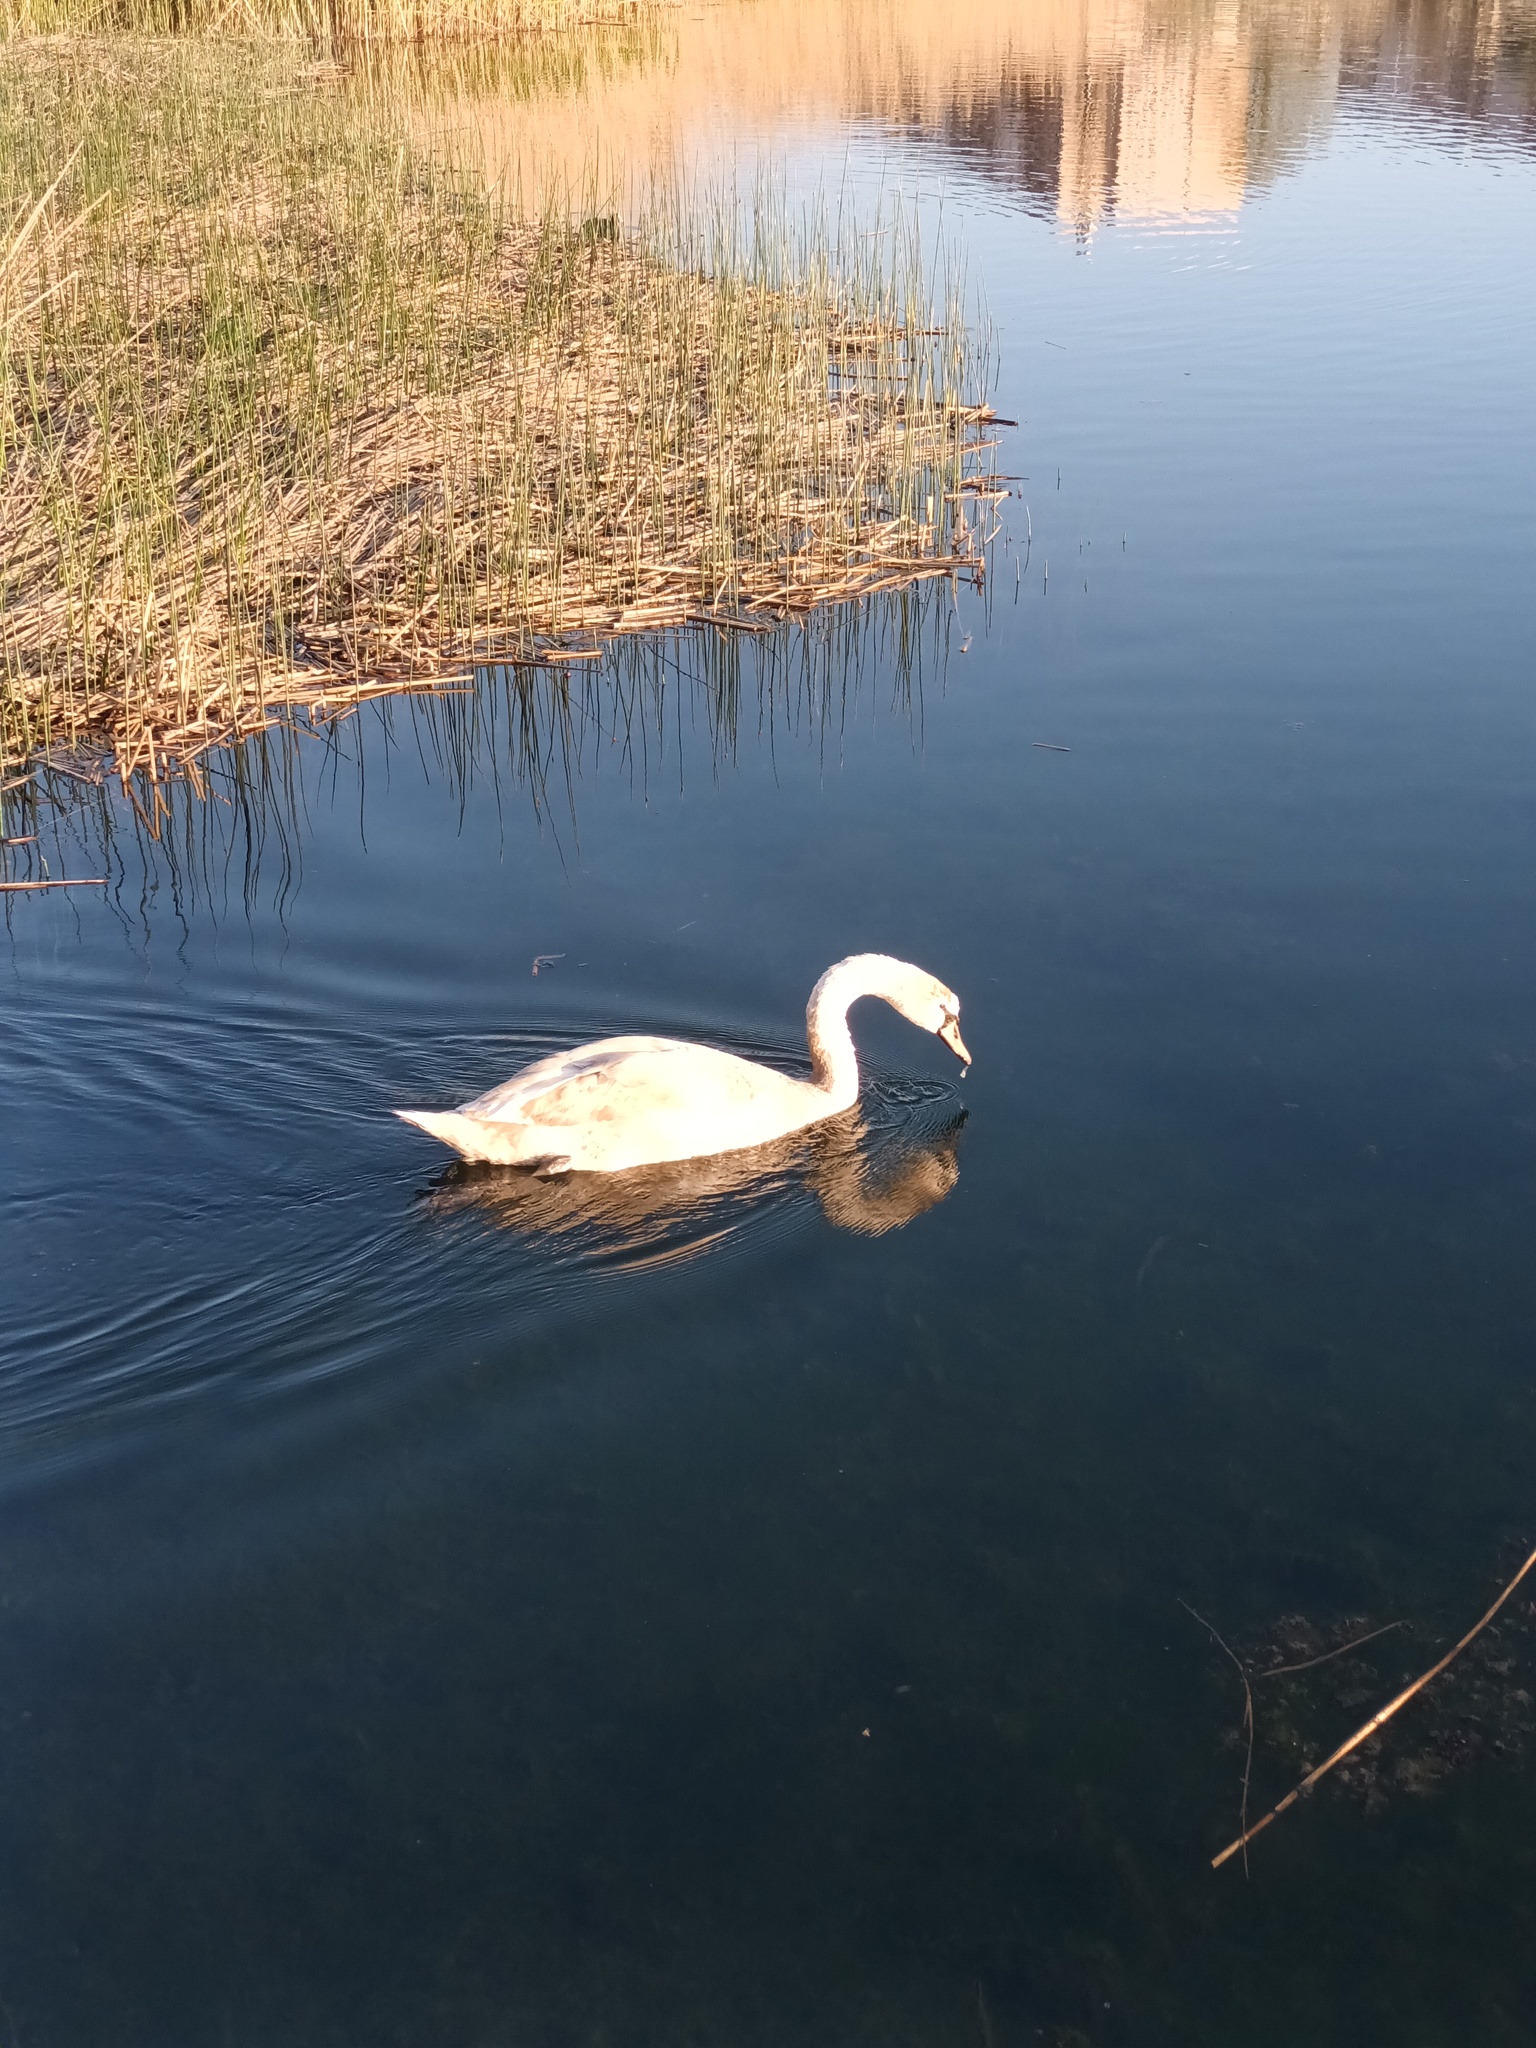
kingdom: Animalia
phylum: Chordata
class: Aves
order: Anseriformes
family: Anatidae
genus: Cygnus
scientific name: Cygnus olor
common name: Mute swan
